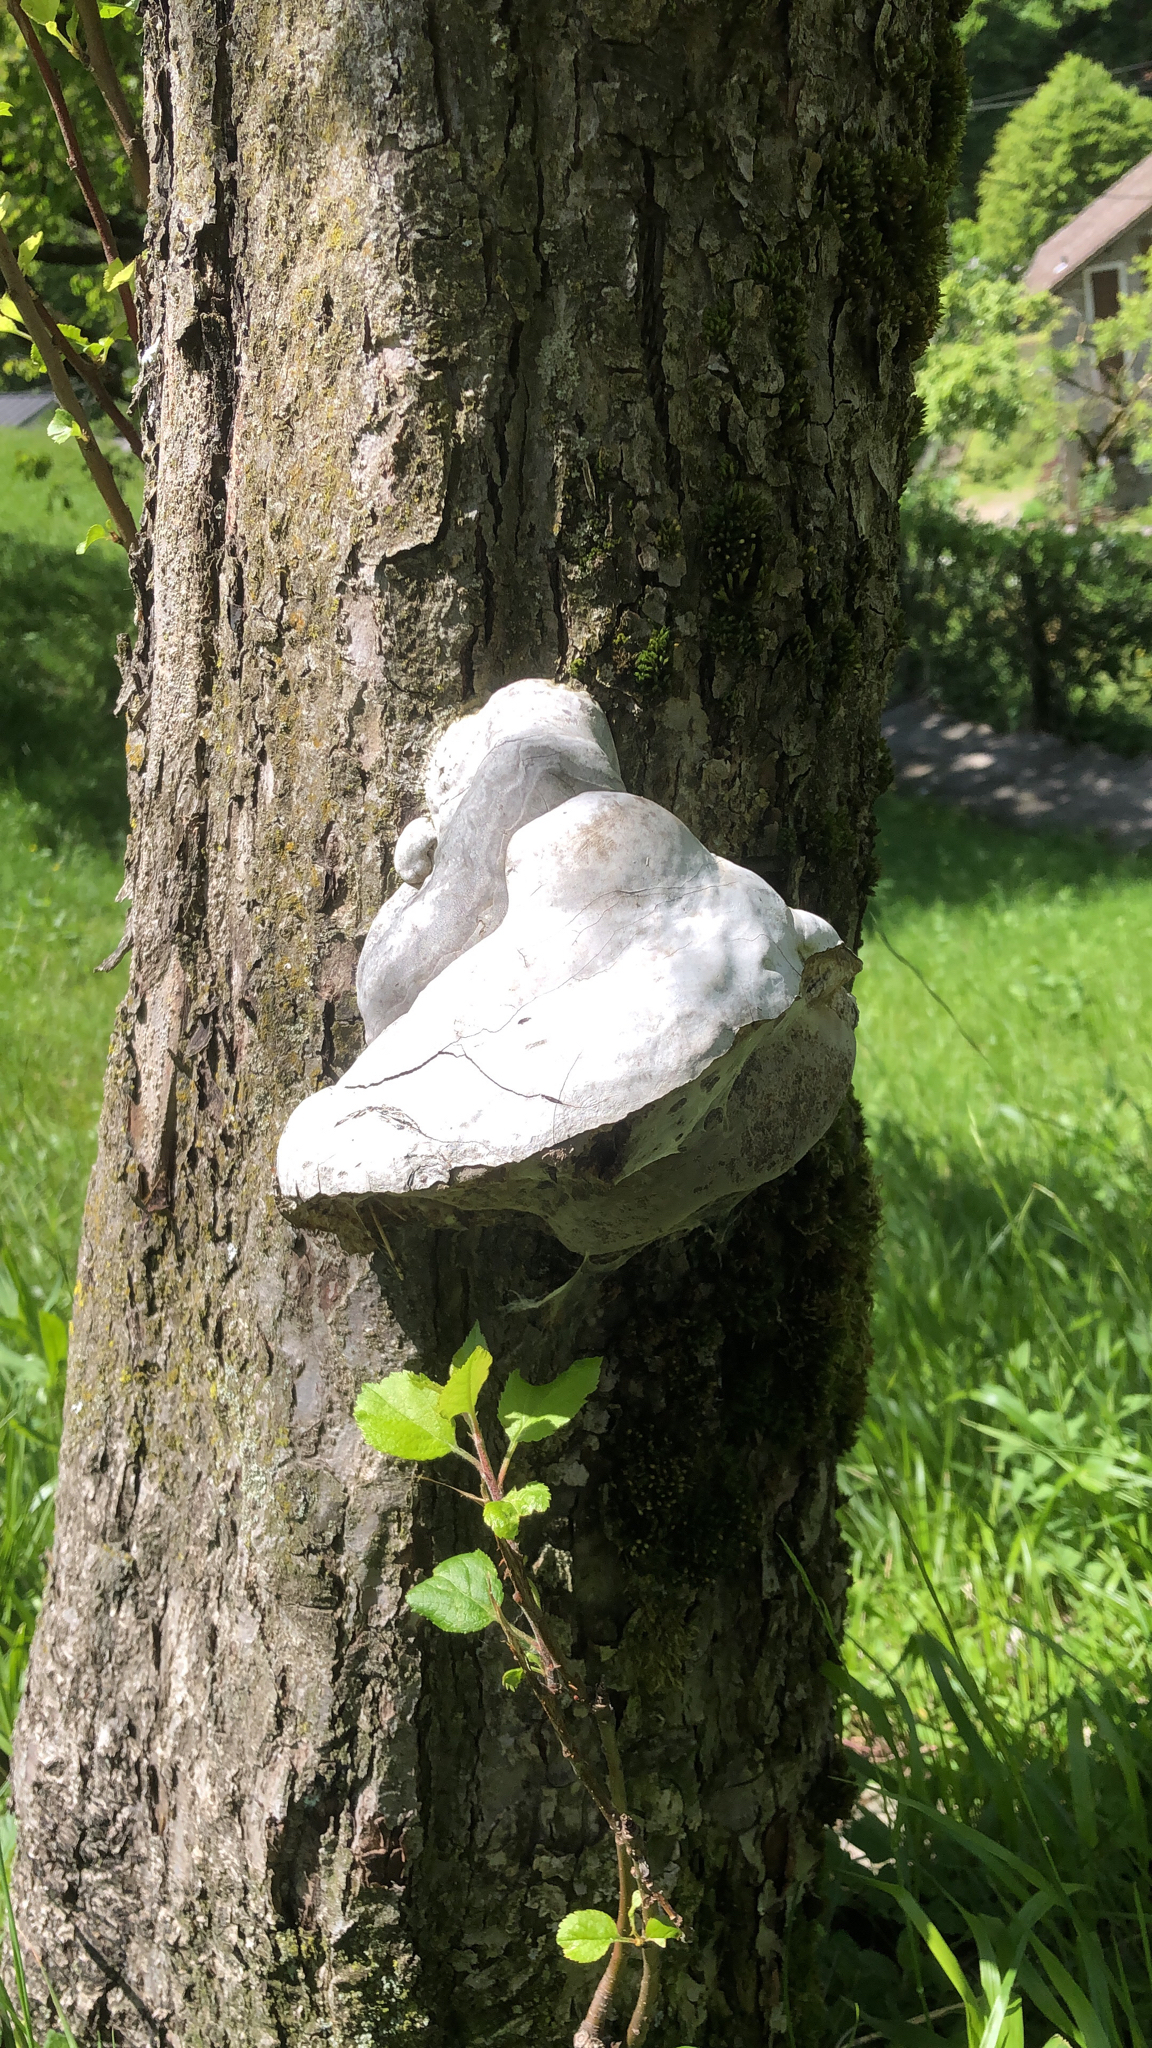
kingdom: Fungi
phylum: Basidiomycota
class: Agaricomycetes
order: Polyporales
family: Polyporaceae
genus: Fomes
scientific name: Fomes fomentarius
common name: Hoof fungus
